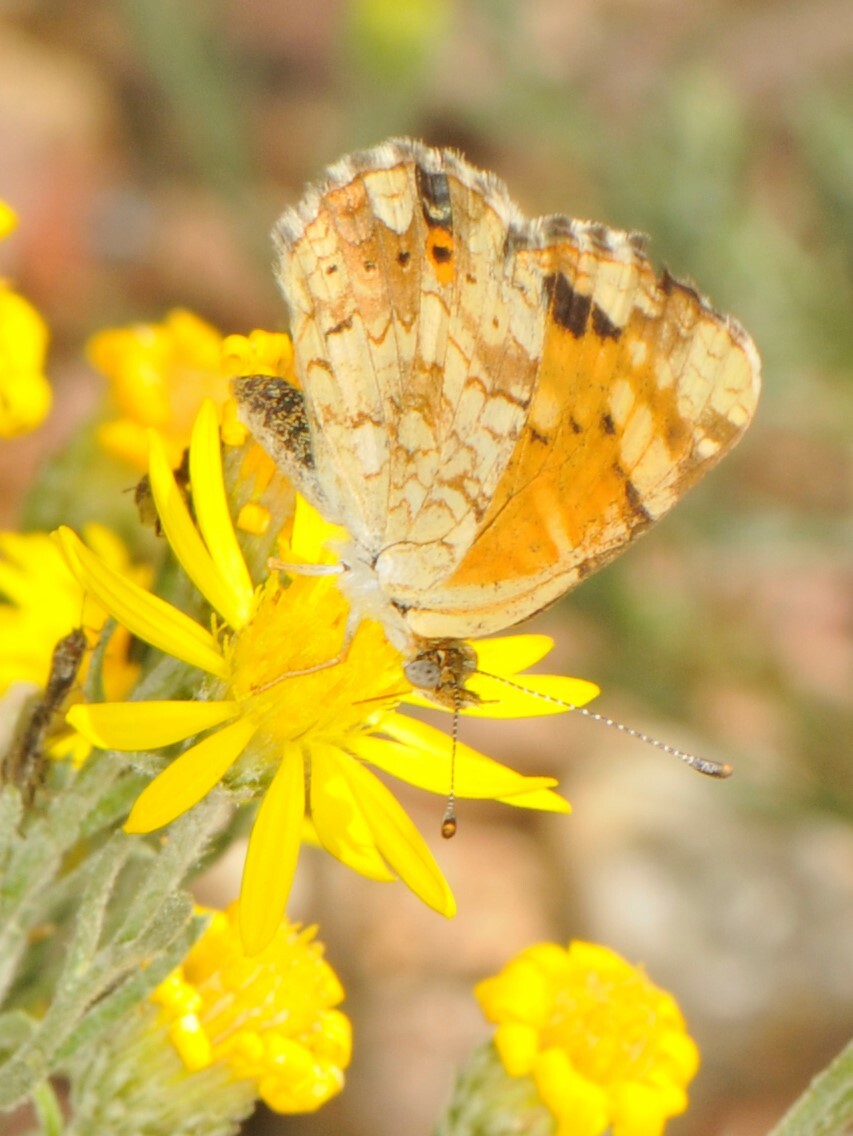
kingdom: Animalia
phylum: Arthropoda
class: Insecta
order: Lepidoptera
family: Nymphalidae
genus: Phyciodes
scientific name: Phyciodes tharos
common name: Pearl crescent
